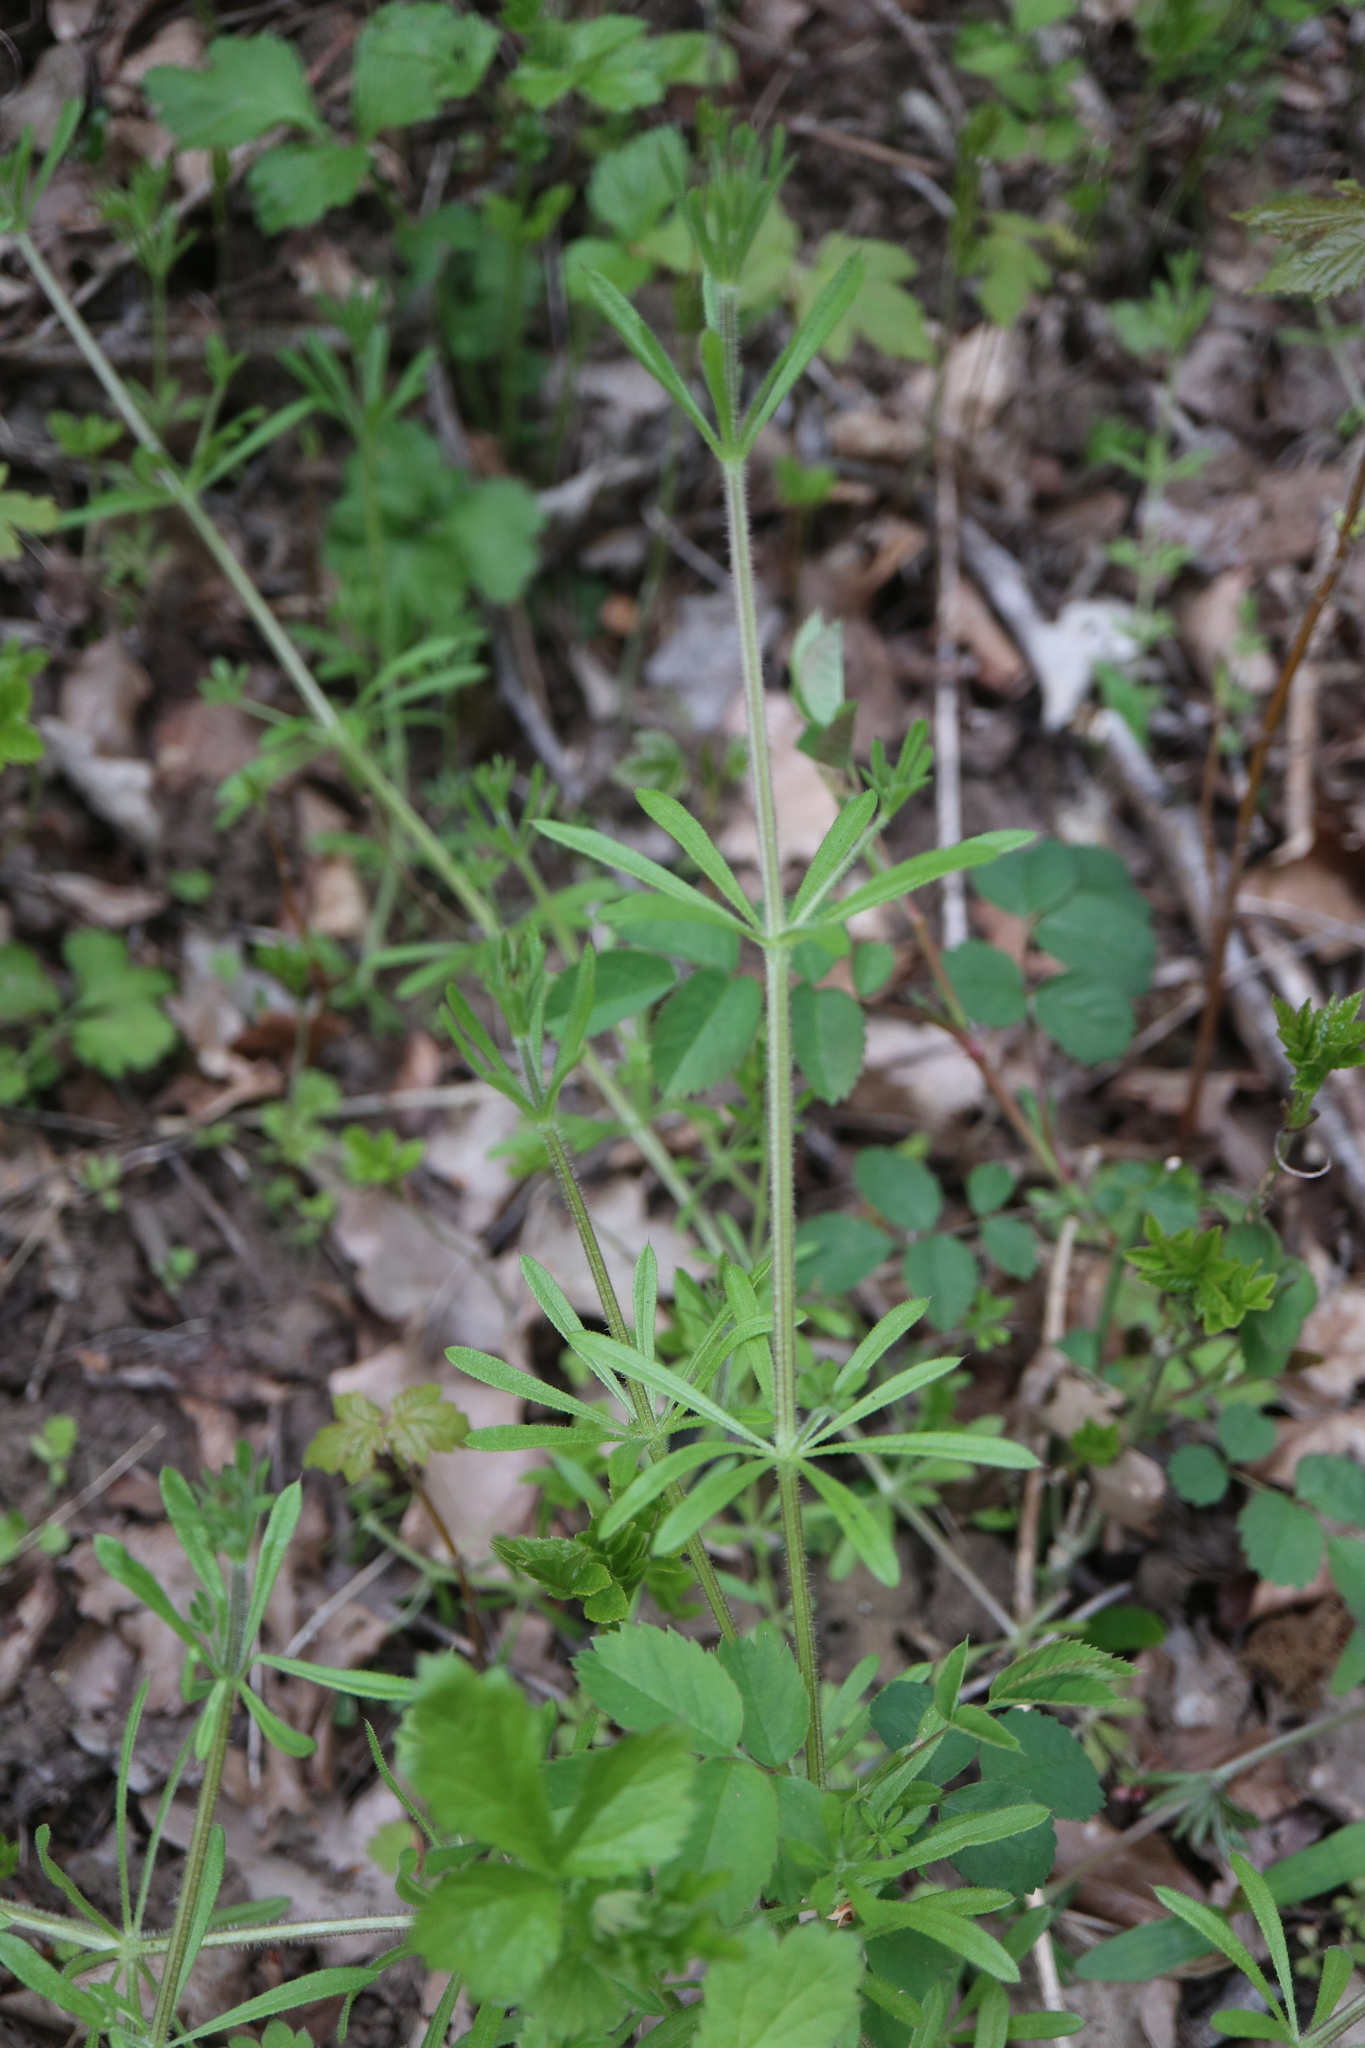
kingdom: Plantae
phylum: Tracheophyta
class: Magnoliopsida
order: Gentianales
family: Rubiaceae
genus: Galium
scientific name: Galium aparine
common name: Cleavers
